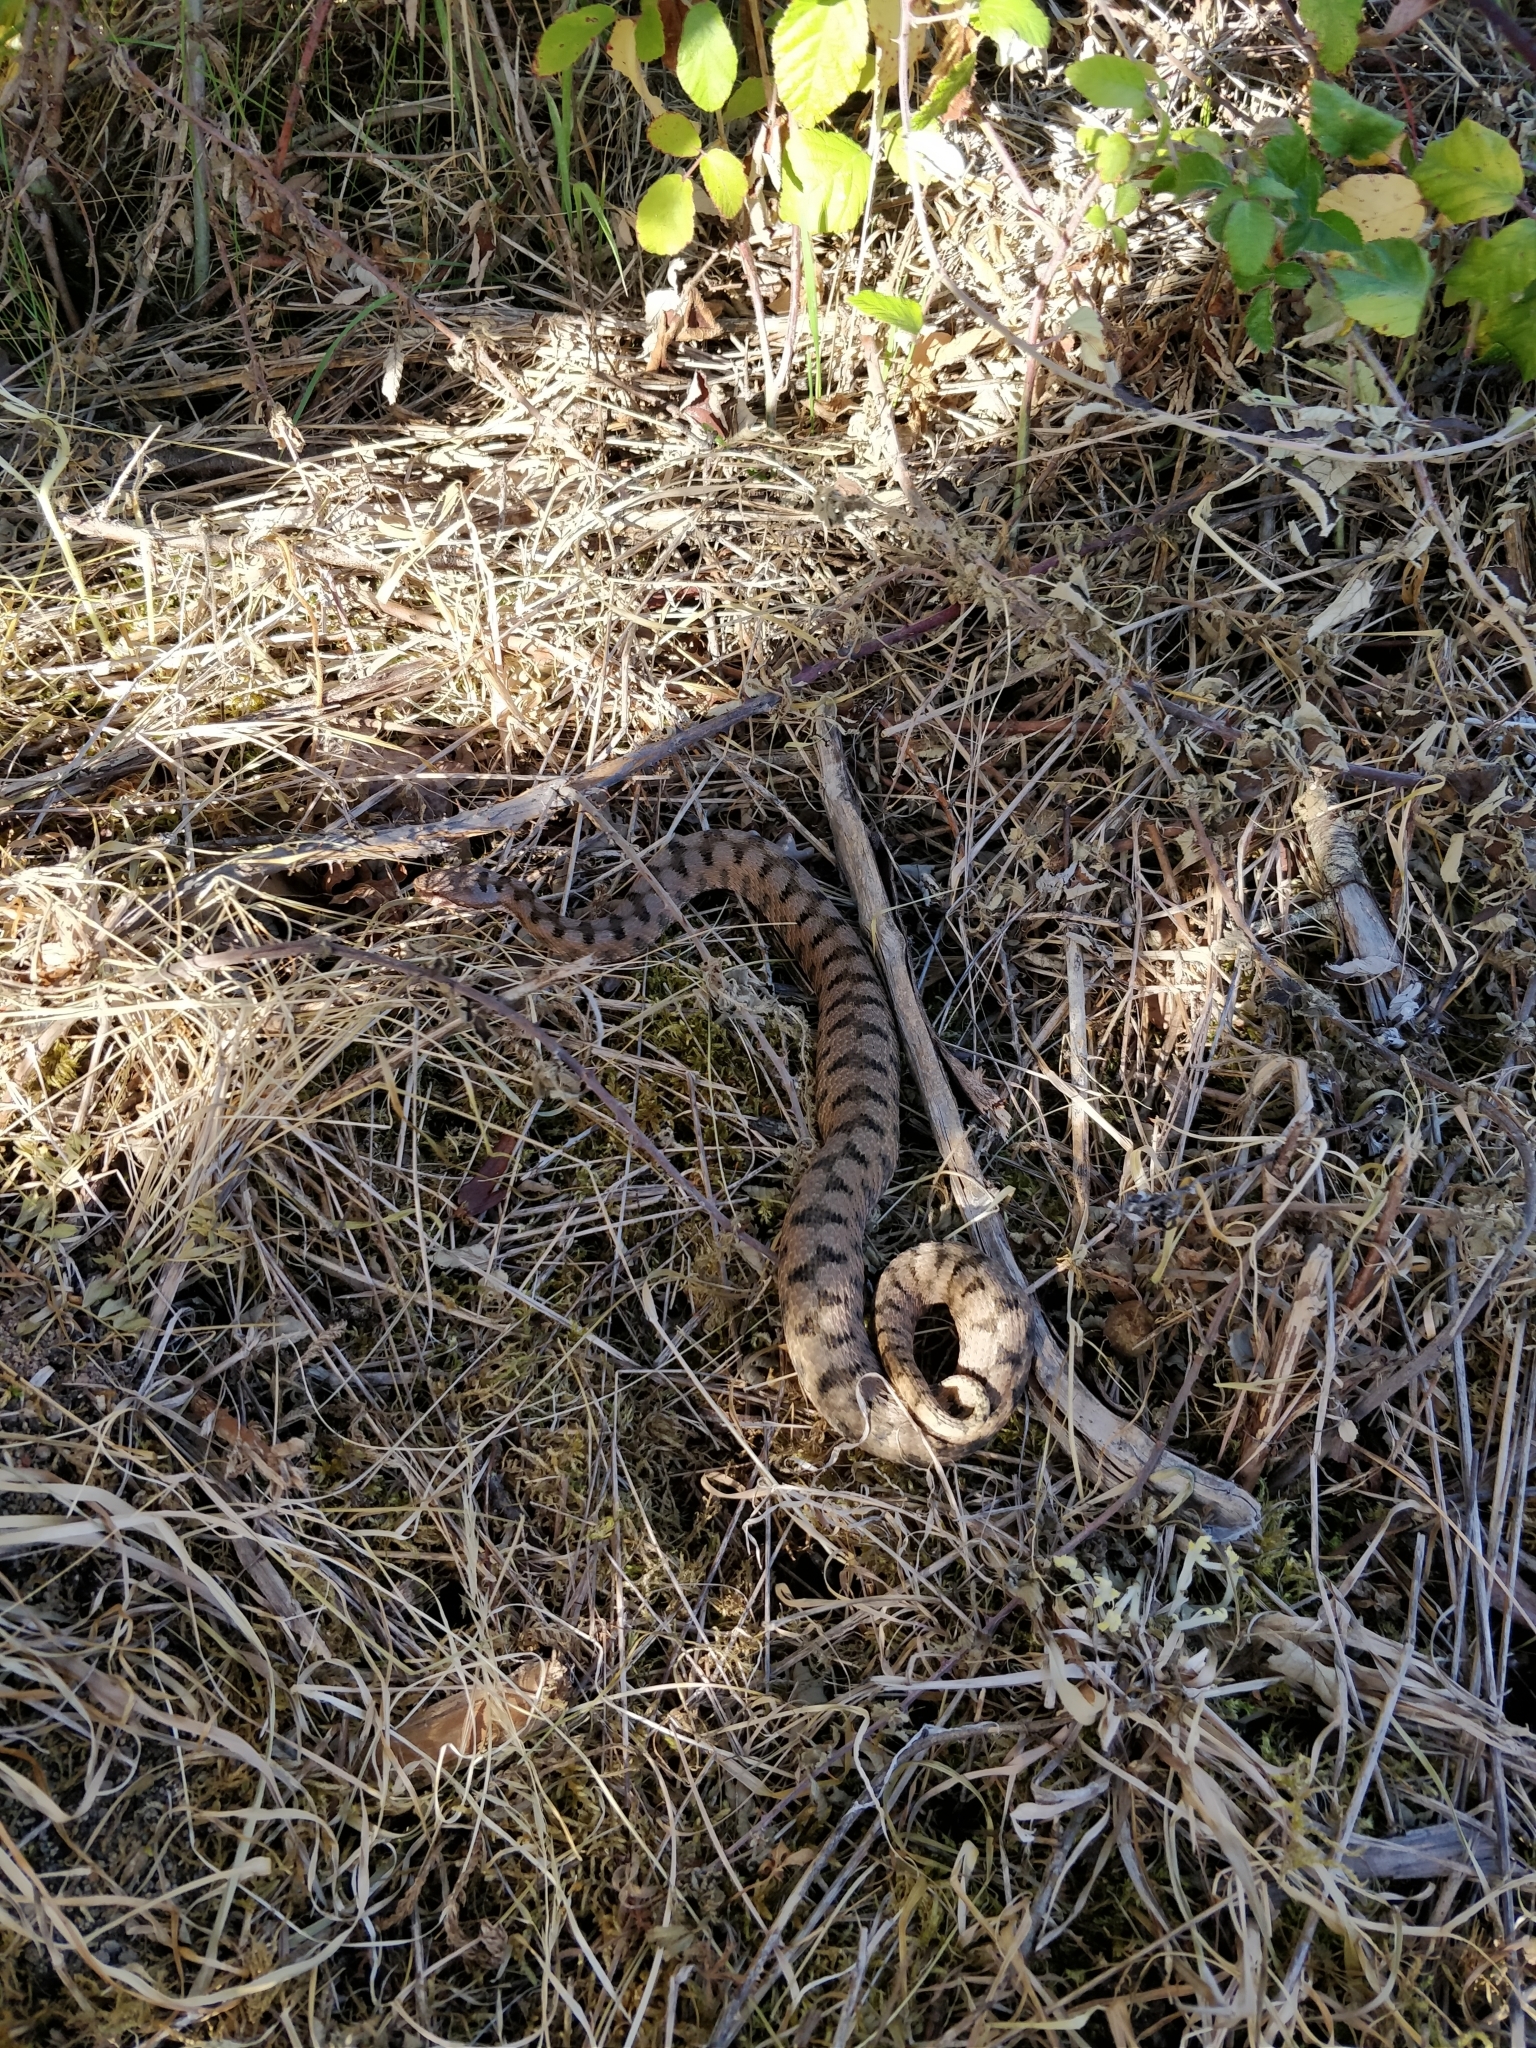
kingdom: Animalia
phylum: Chordata
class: Squamata
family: Viperidae
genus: Vipera
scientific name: Vipera aspis
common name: Asp viper
